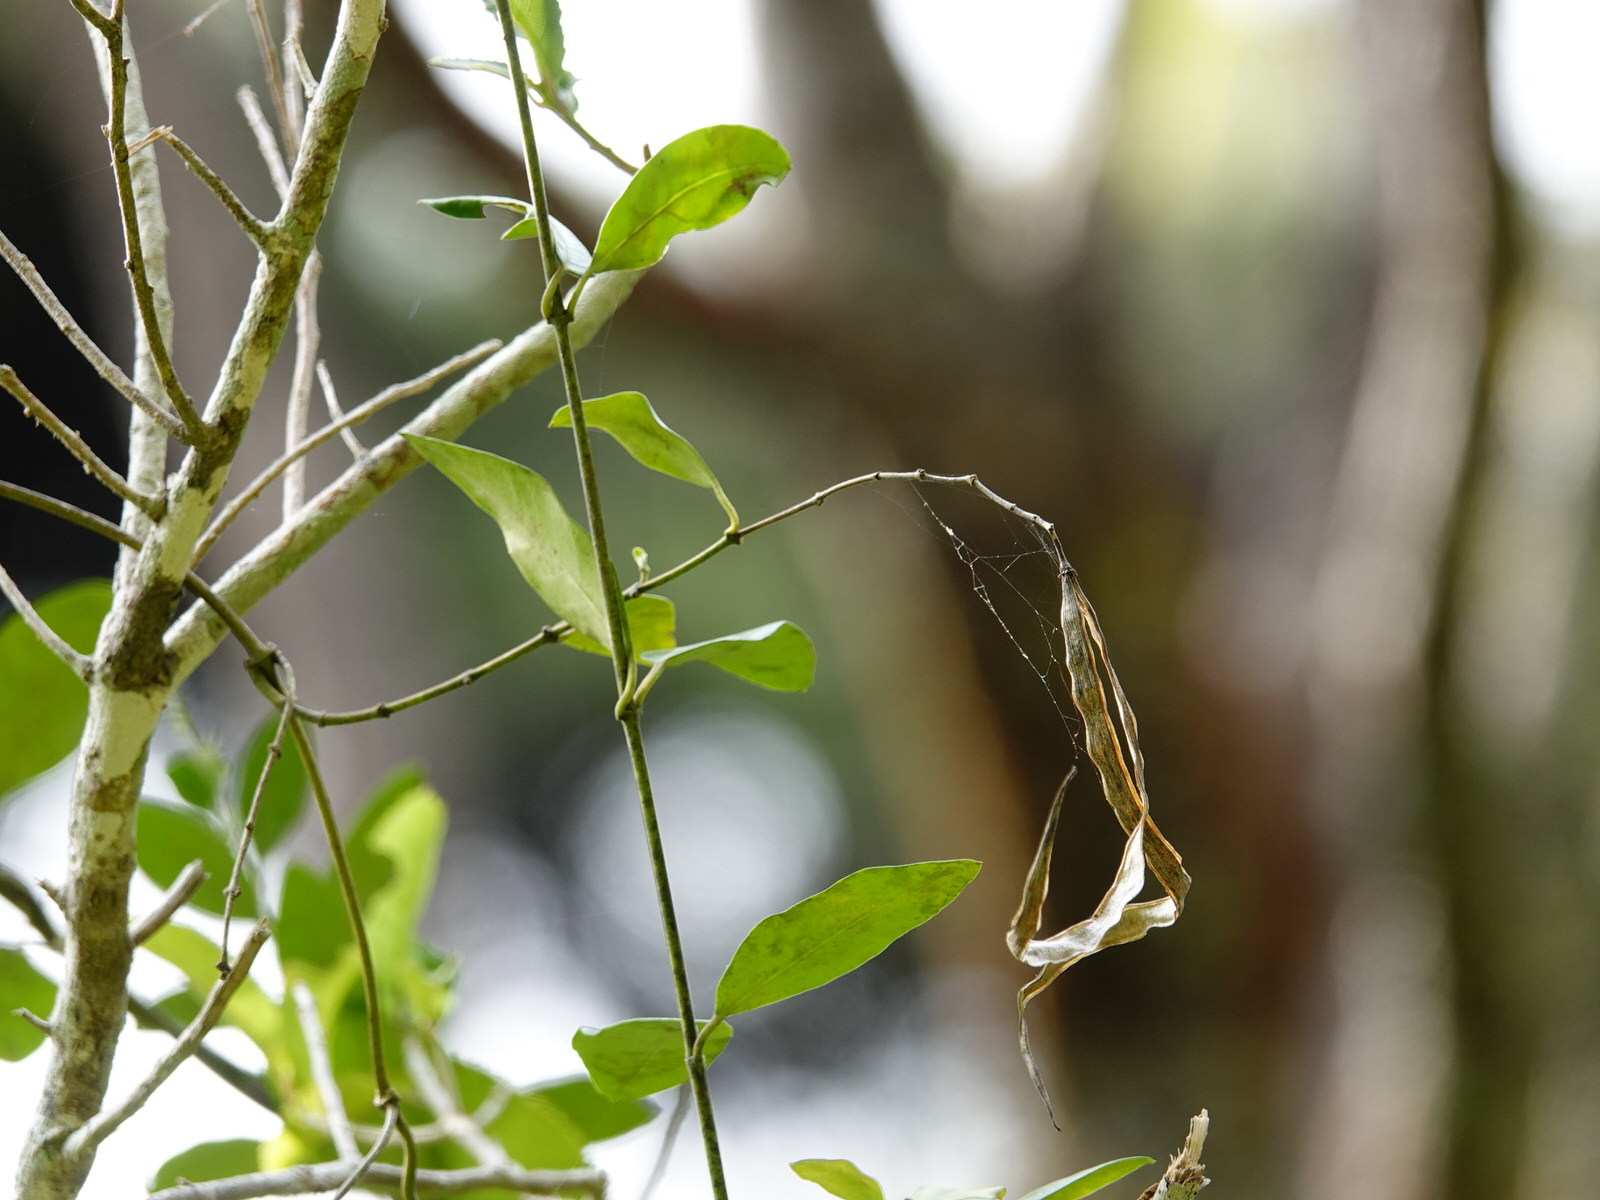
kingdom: Plantae
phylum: Tracheophyta
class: Magnoliopsida
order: Gentianales
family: Apocynaceae
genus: Parsonsia
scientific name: Parsonsia heterophylla
